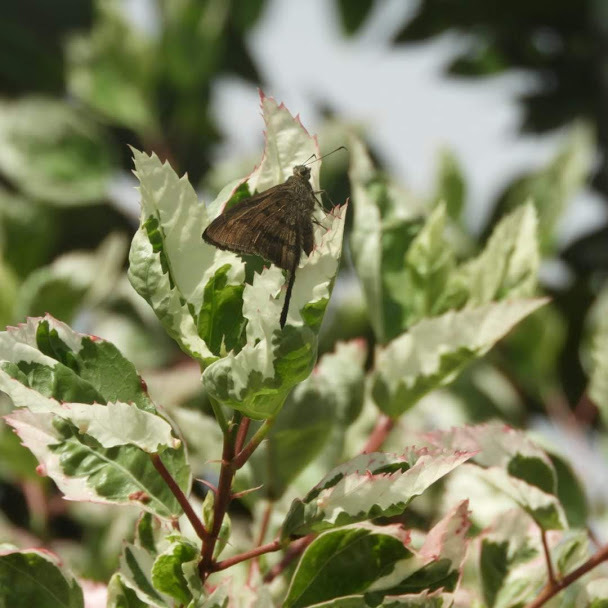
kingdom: Animalia
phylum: Arthropoda
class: Insecta
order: Lepidoptera
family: Hesperiidae
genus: Urbanus
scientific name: Urbanus procne
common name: Brown longtail
